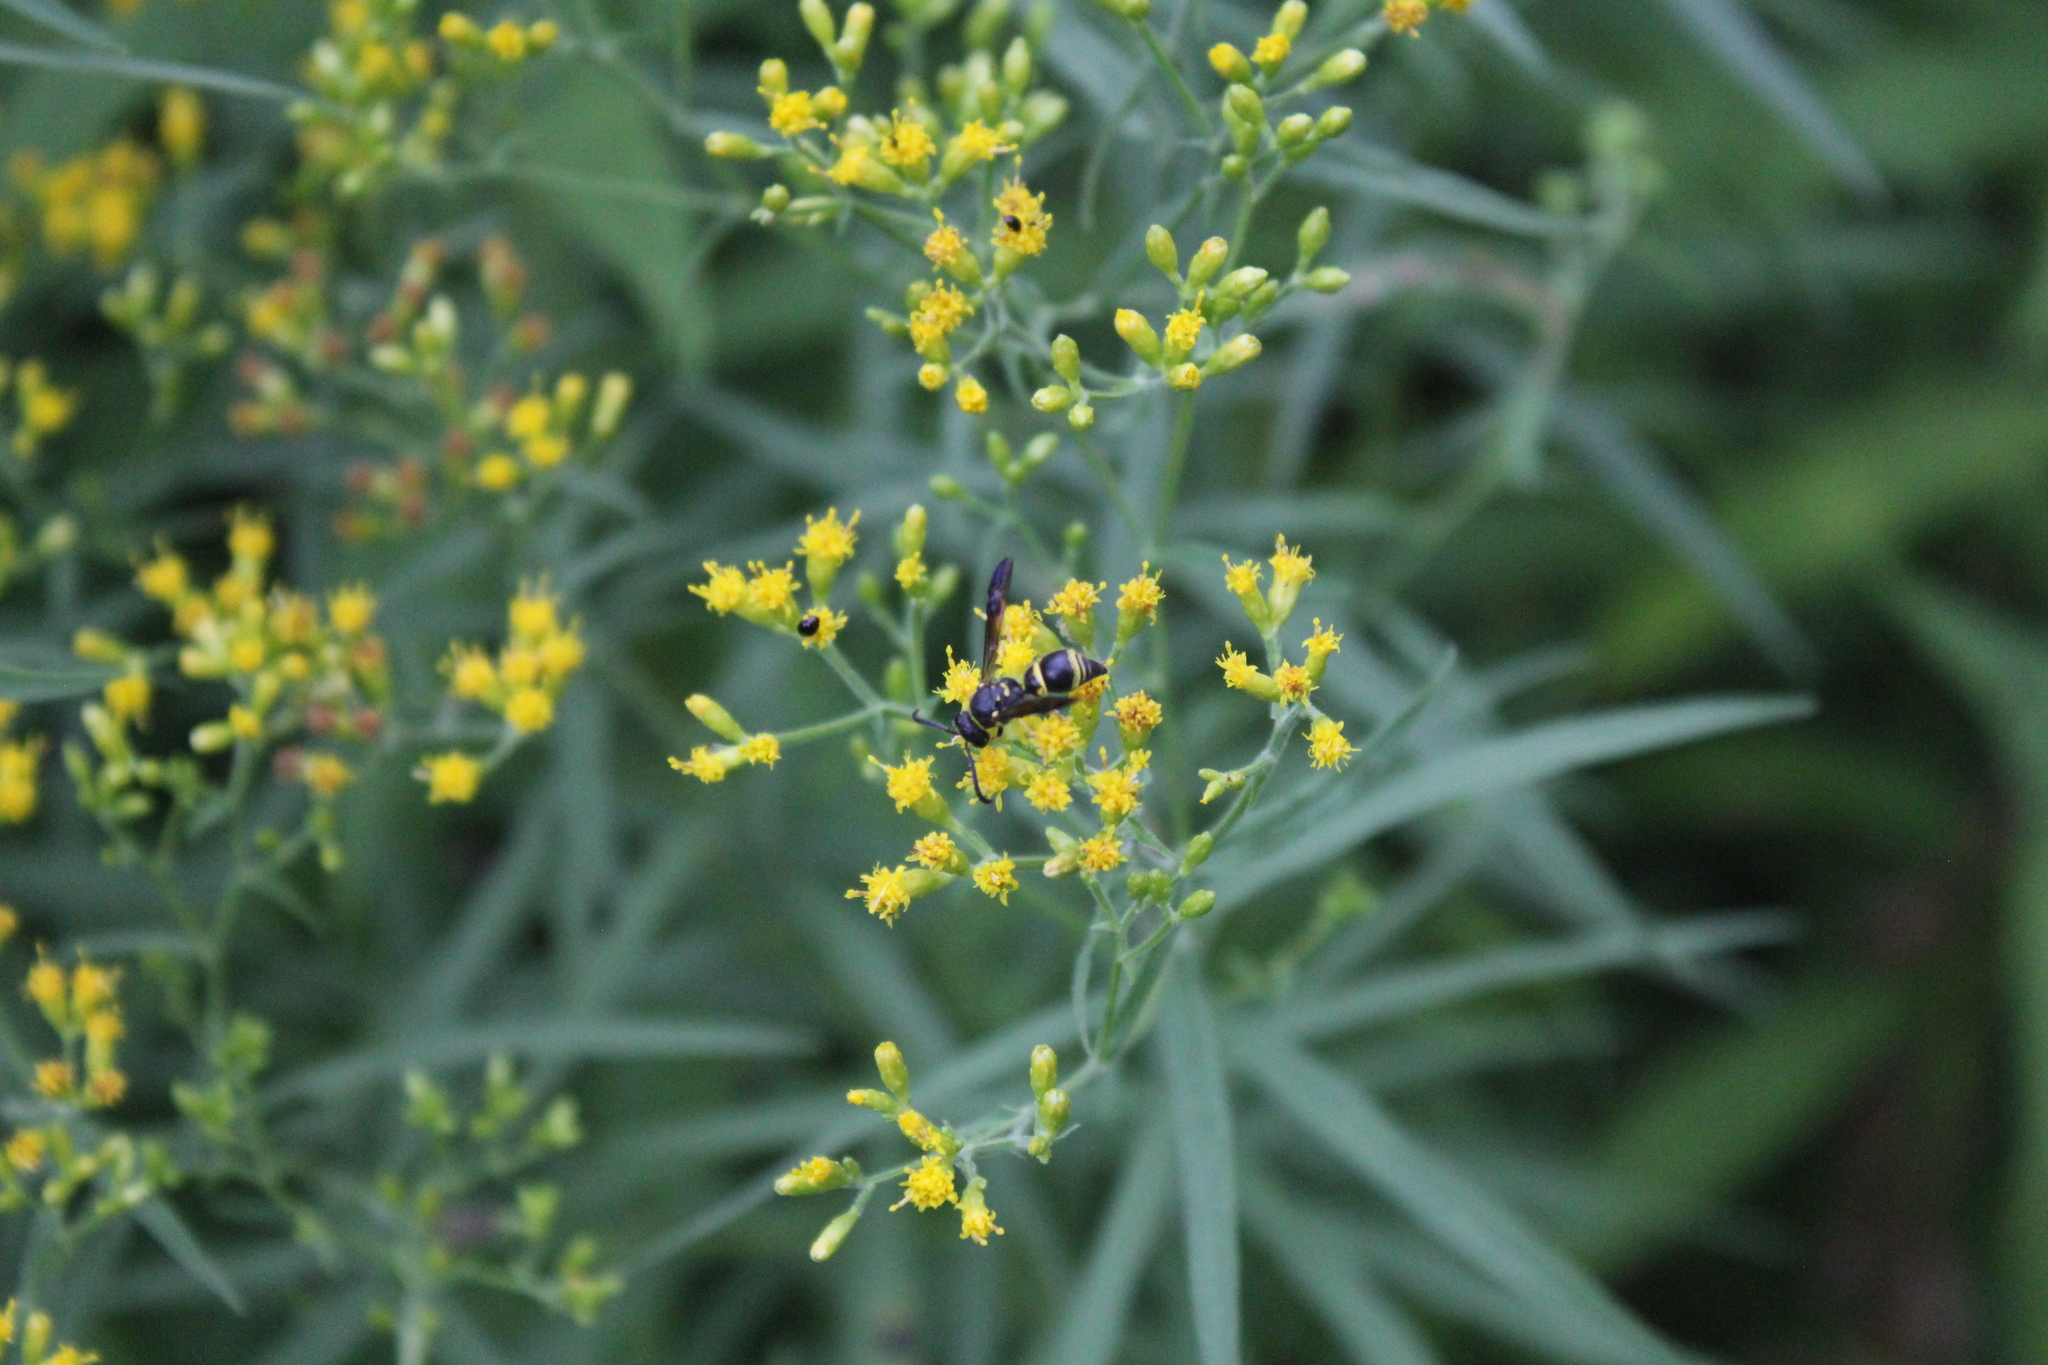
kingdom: Animalia
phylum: Arthropoda
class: Insecta
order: Hymenoptera
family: Vespidae
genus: Ancistrocerus
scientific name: Ancistrocerus campestris
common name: Smiling mason wasp
